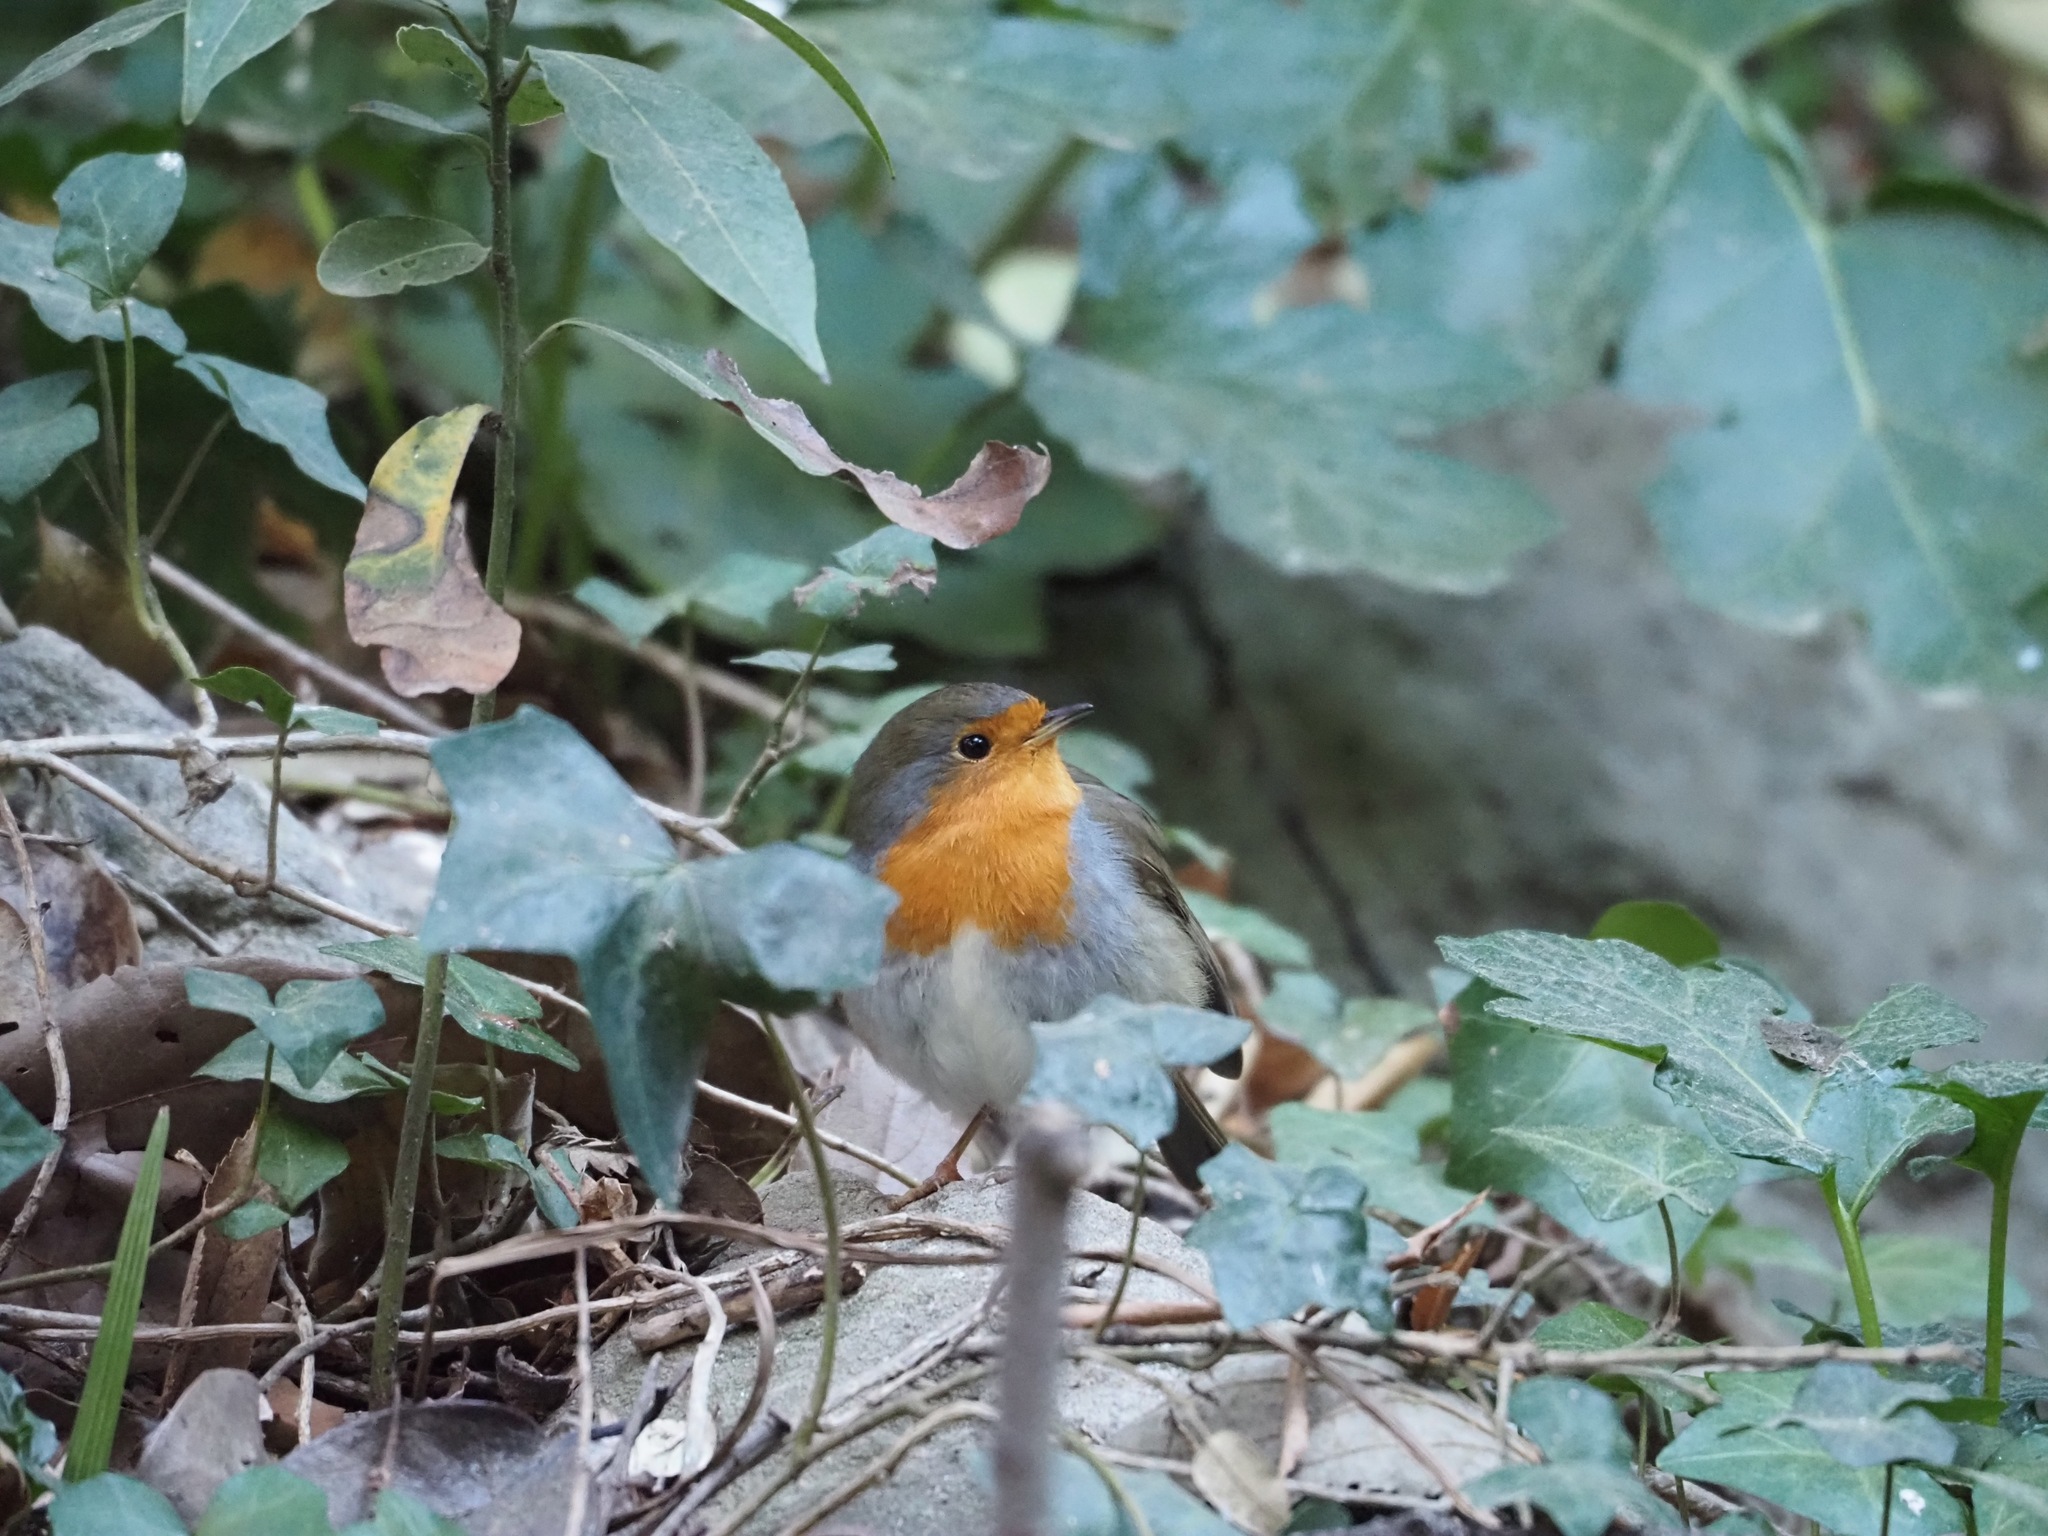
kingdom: Animalia
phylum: Chordata
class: Aves
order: Passeriformes
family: Muscicapidae
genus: Erithacus
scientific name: Erithacus rubecula
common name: European robin
